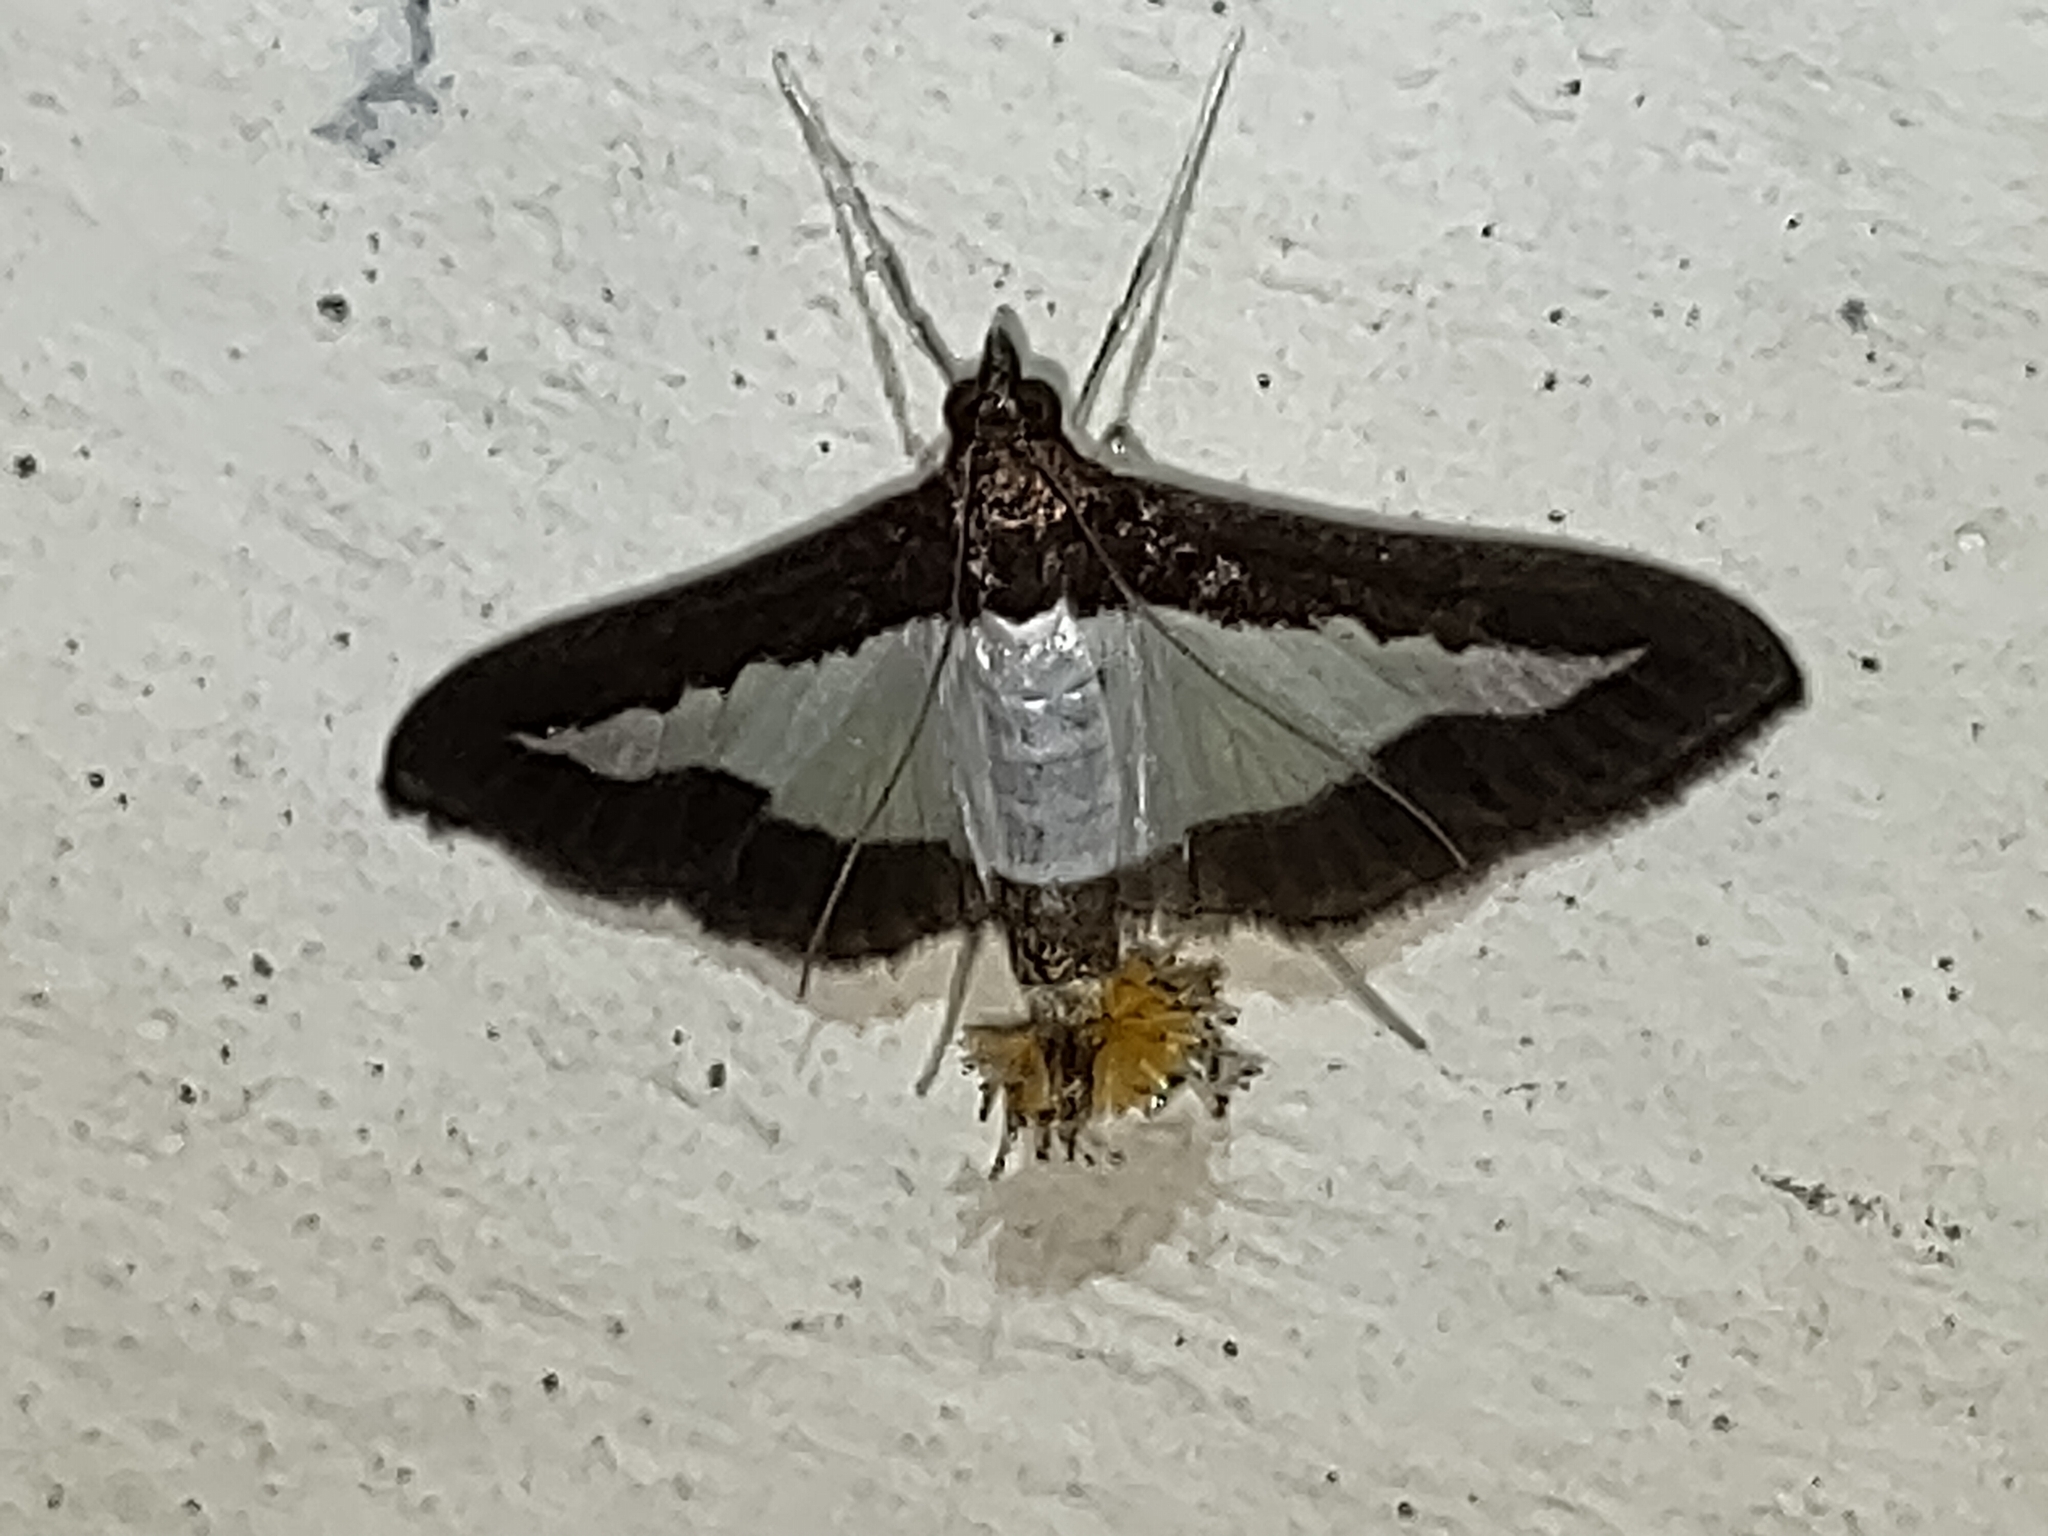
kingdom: Animalia
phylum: Arthropoda
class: Insecta
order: Lepidoptera
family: Crambidae
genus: Diaphania
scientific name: Diaphania indica
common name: Cucumber moth
